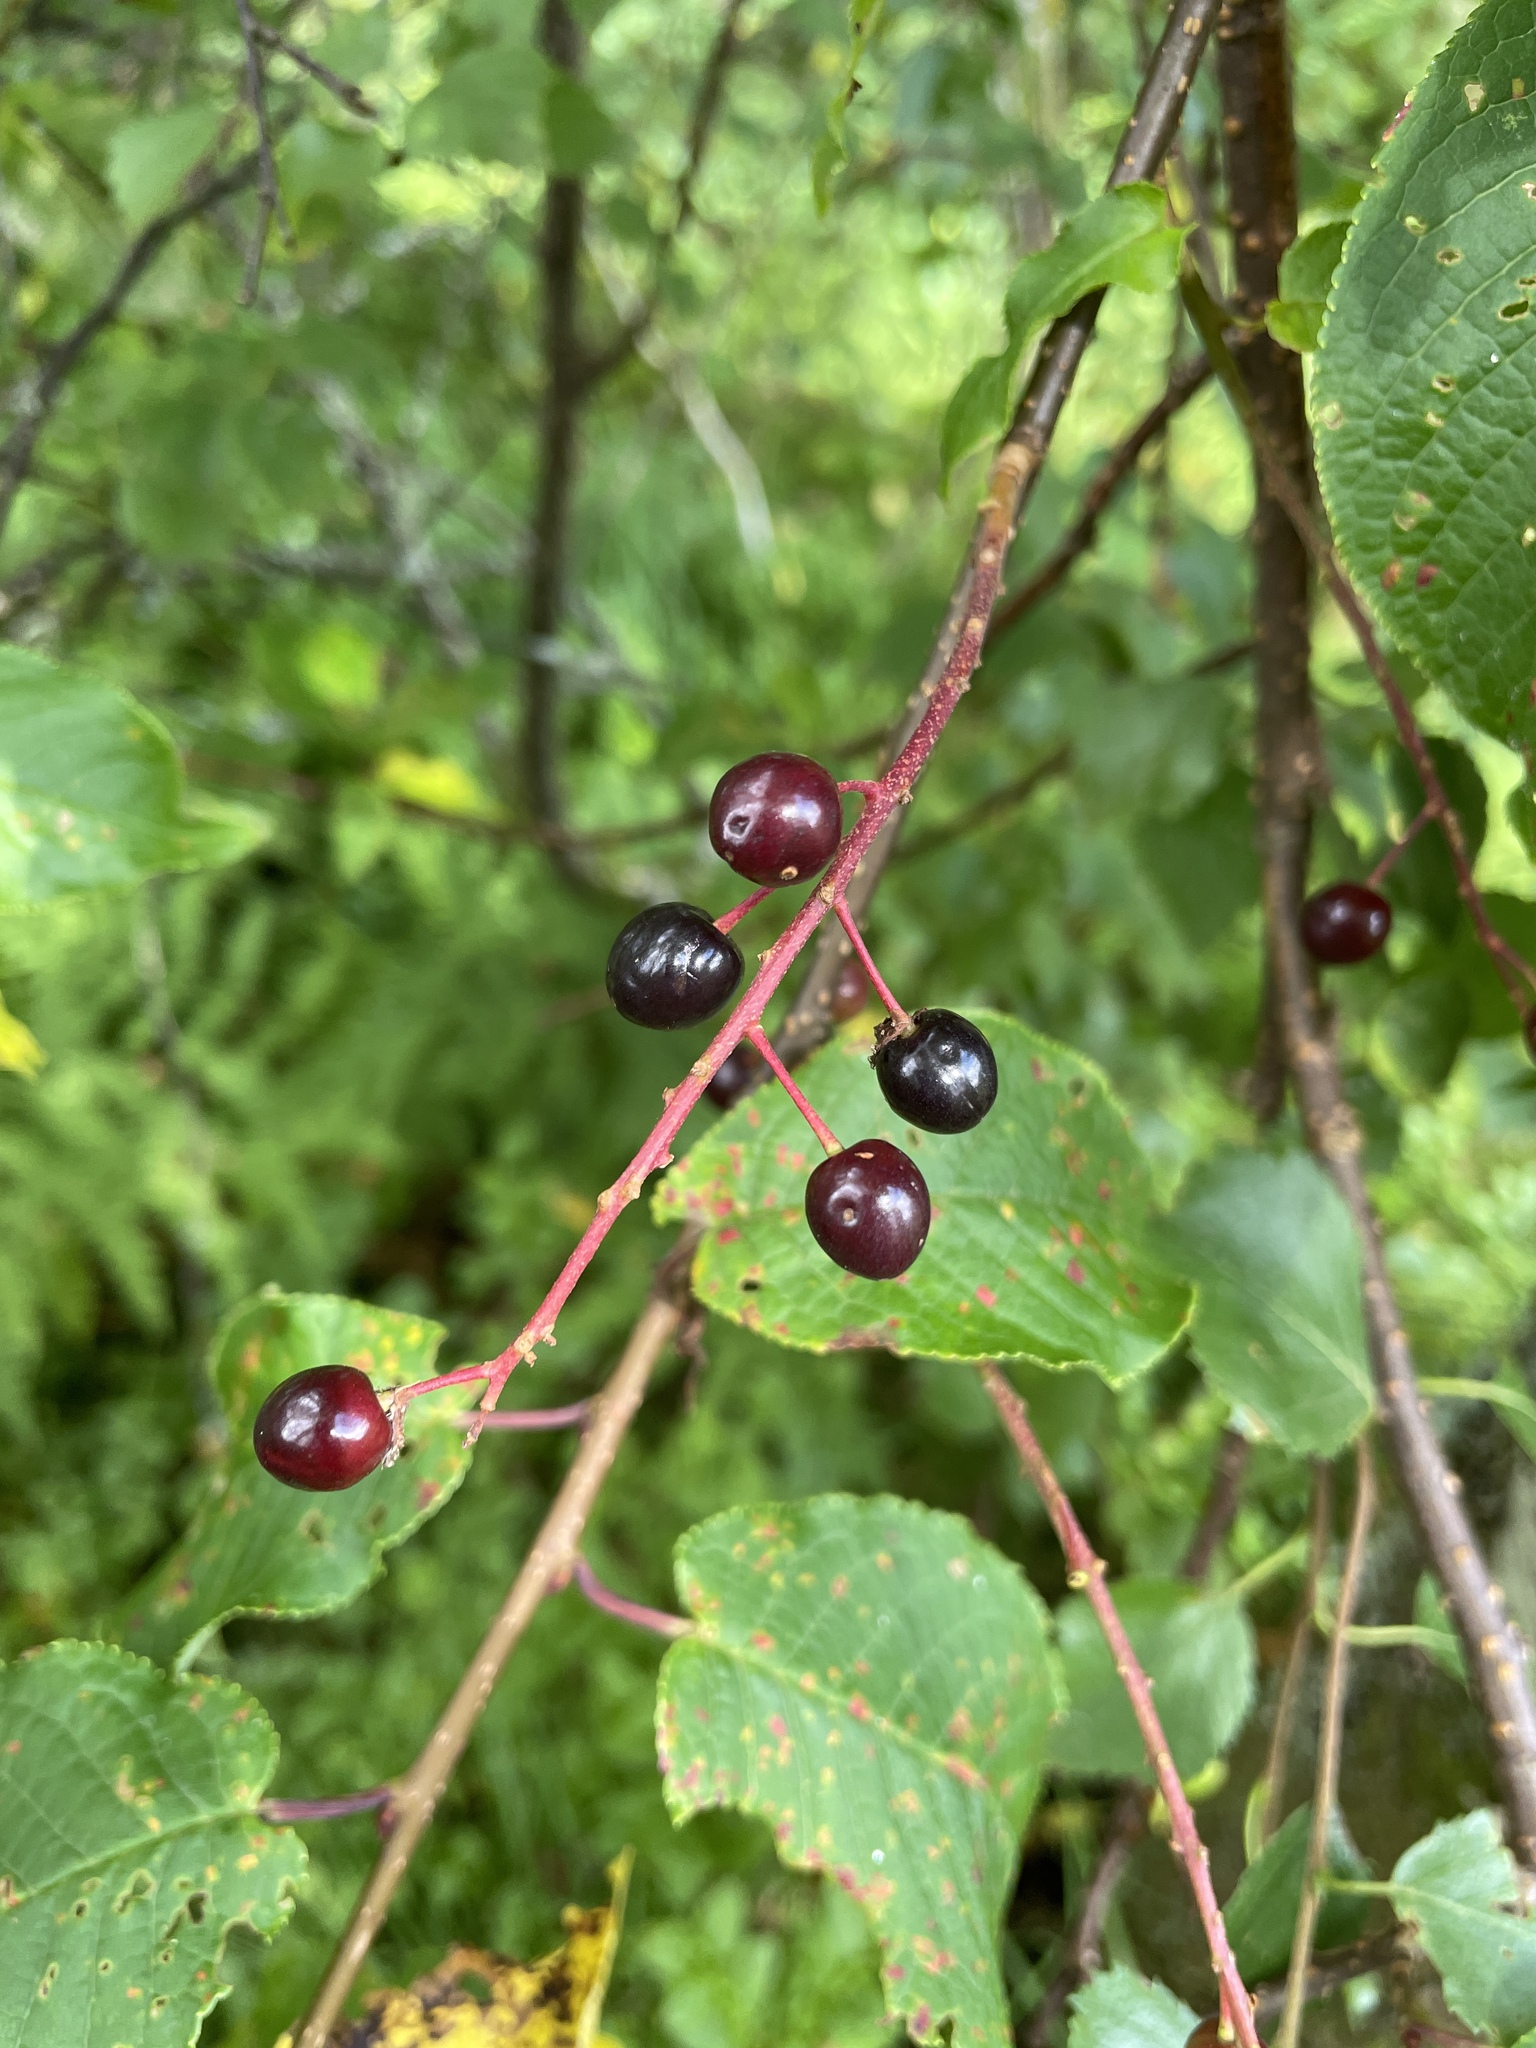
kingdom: Plantae
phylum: Tracheophyta
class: Magnoliopsida
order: Rosales
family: Rosaceae
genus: Prunus
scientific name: Prunus padus
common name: Bird cherry
